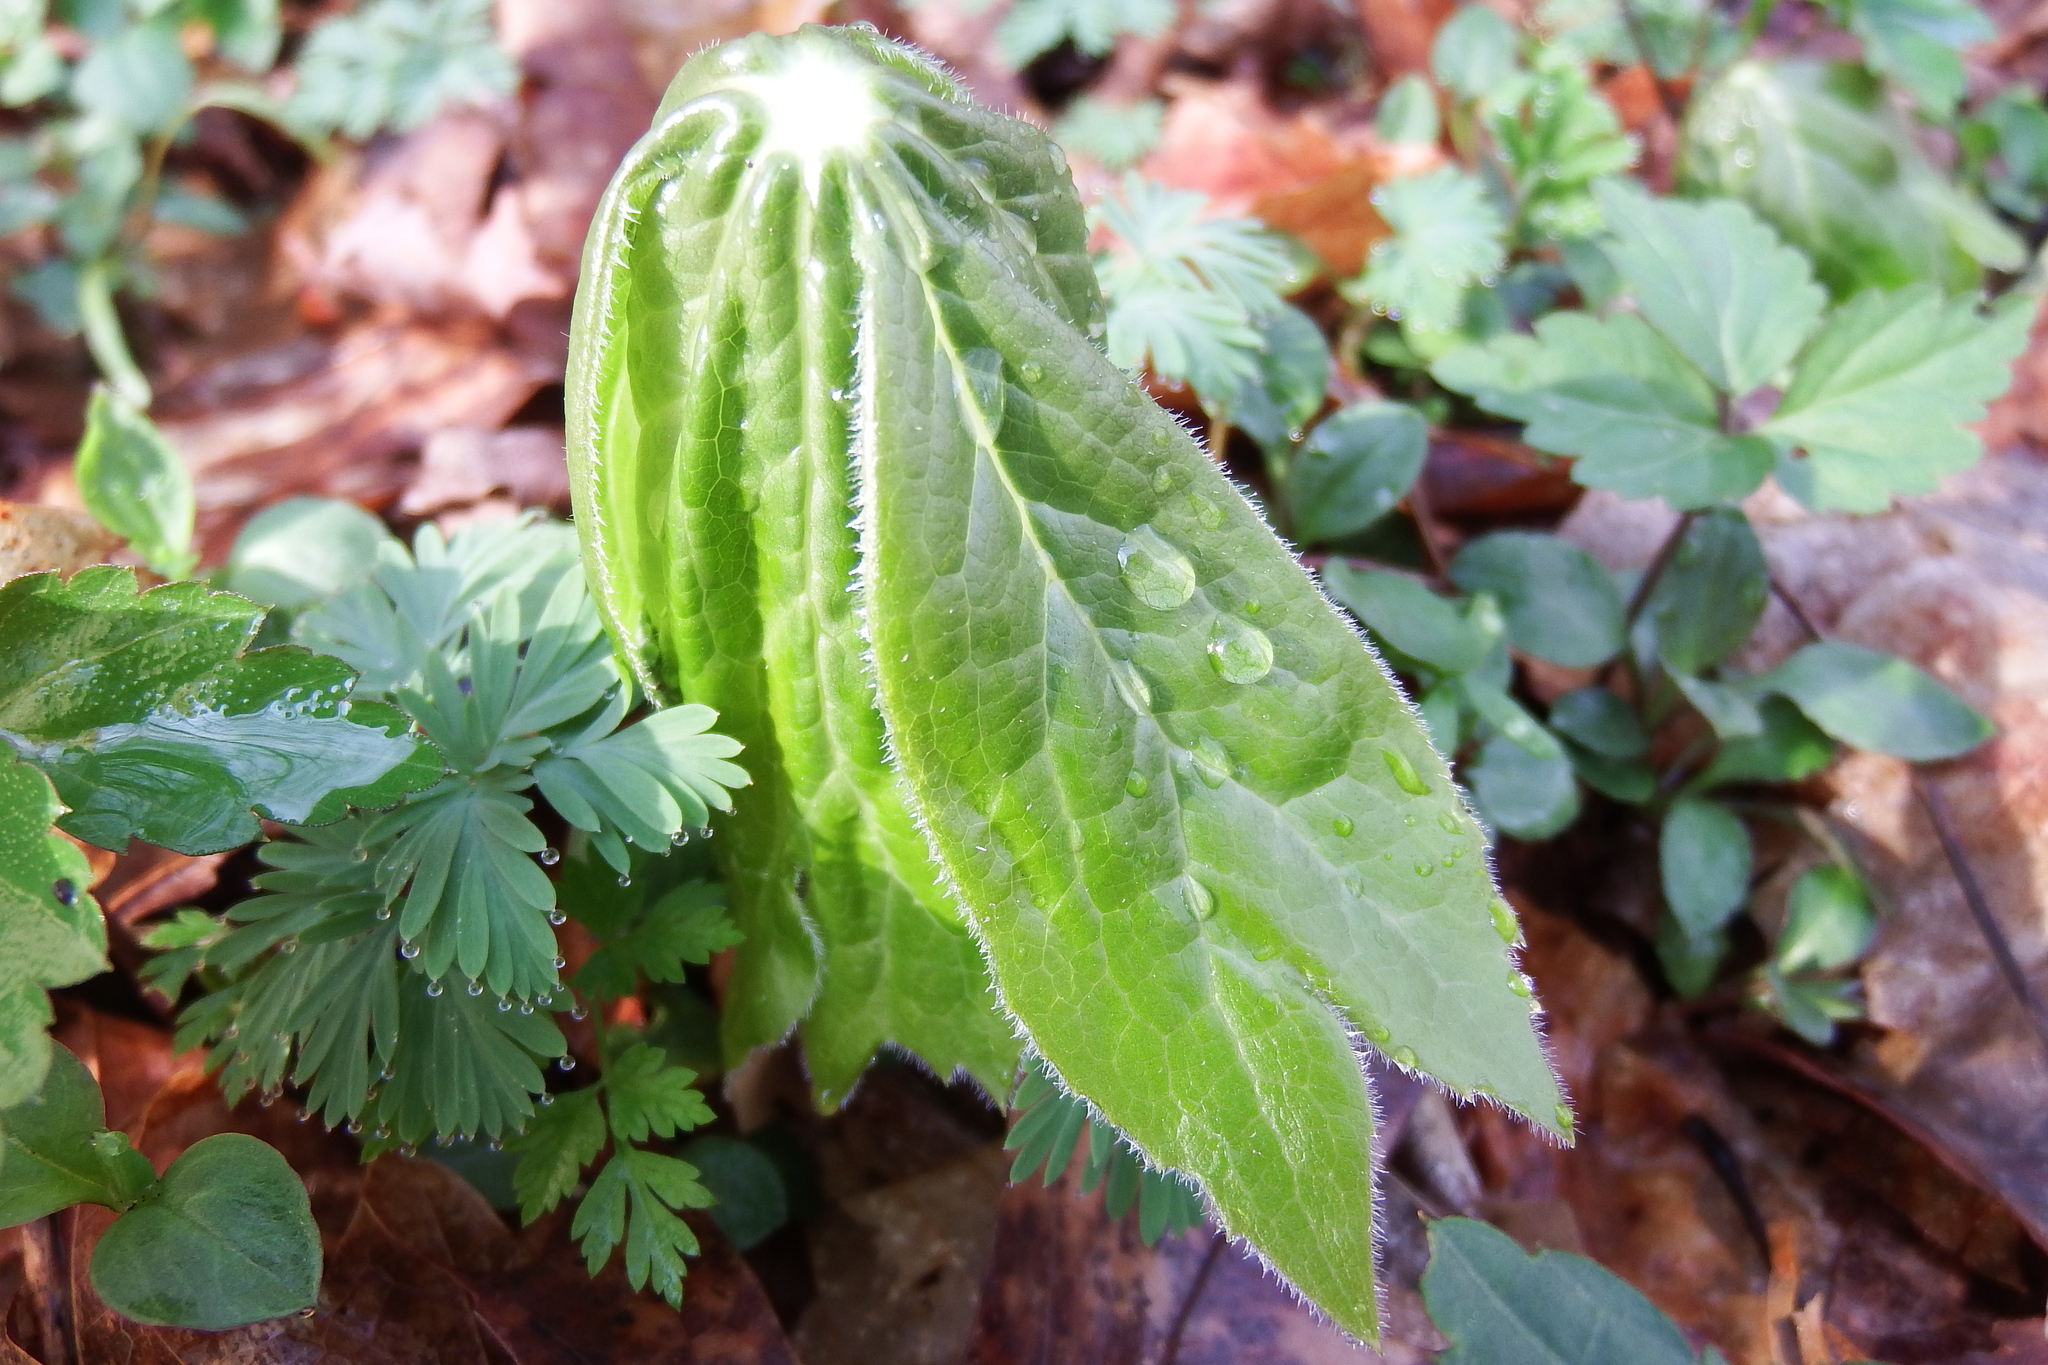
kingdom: Plantae
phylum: Tracheophyta
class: Magnoliopsida
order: Ranunculales
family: Berberidaceae
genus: Podophyllum
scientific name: Podophyllum peltatum
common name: Wild mandrake
